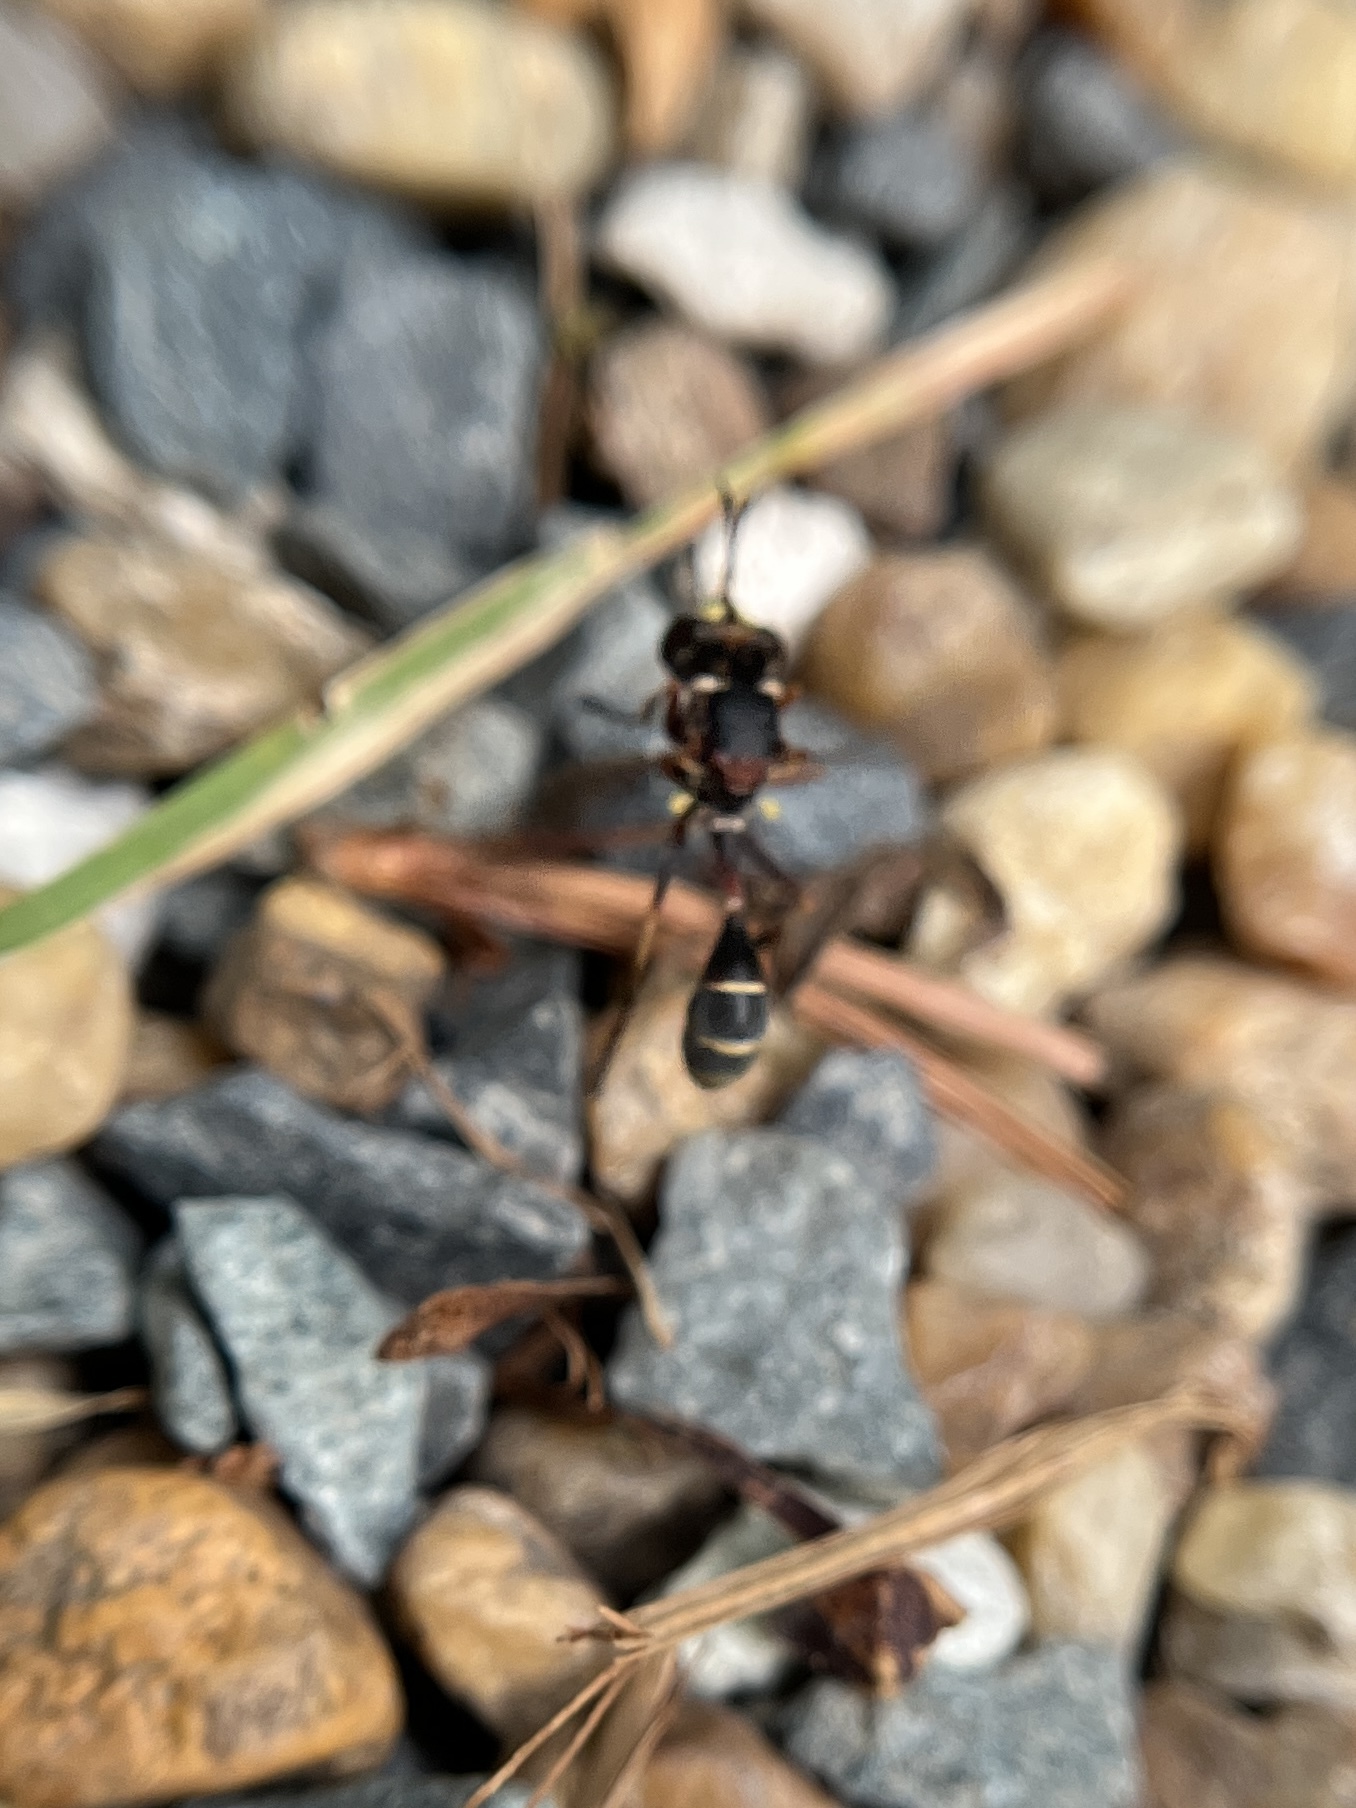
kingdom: Animalia
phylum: Arthropoda
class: Insecta
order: Diptera
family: Conopidae
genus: Physocephala
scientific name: Physocephala sagittaria
